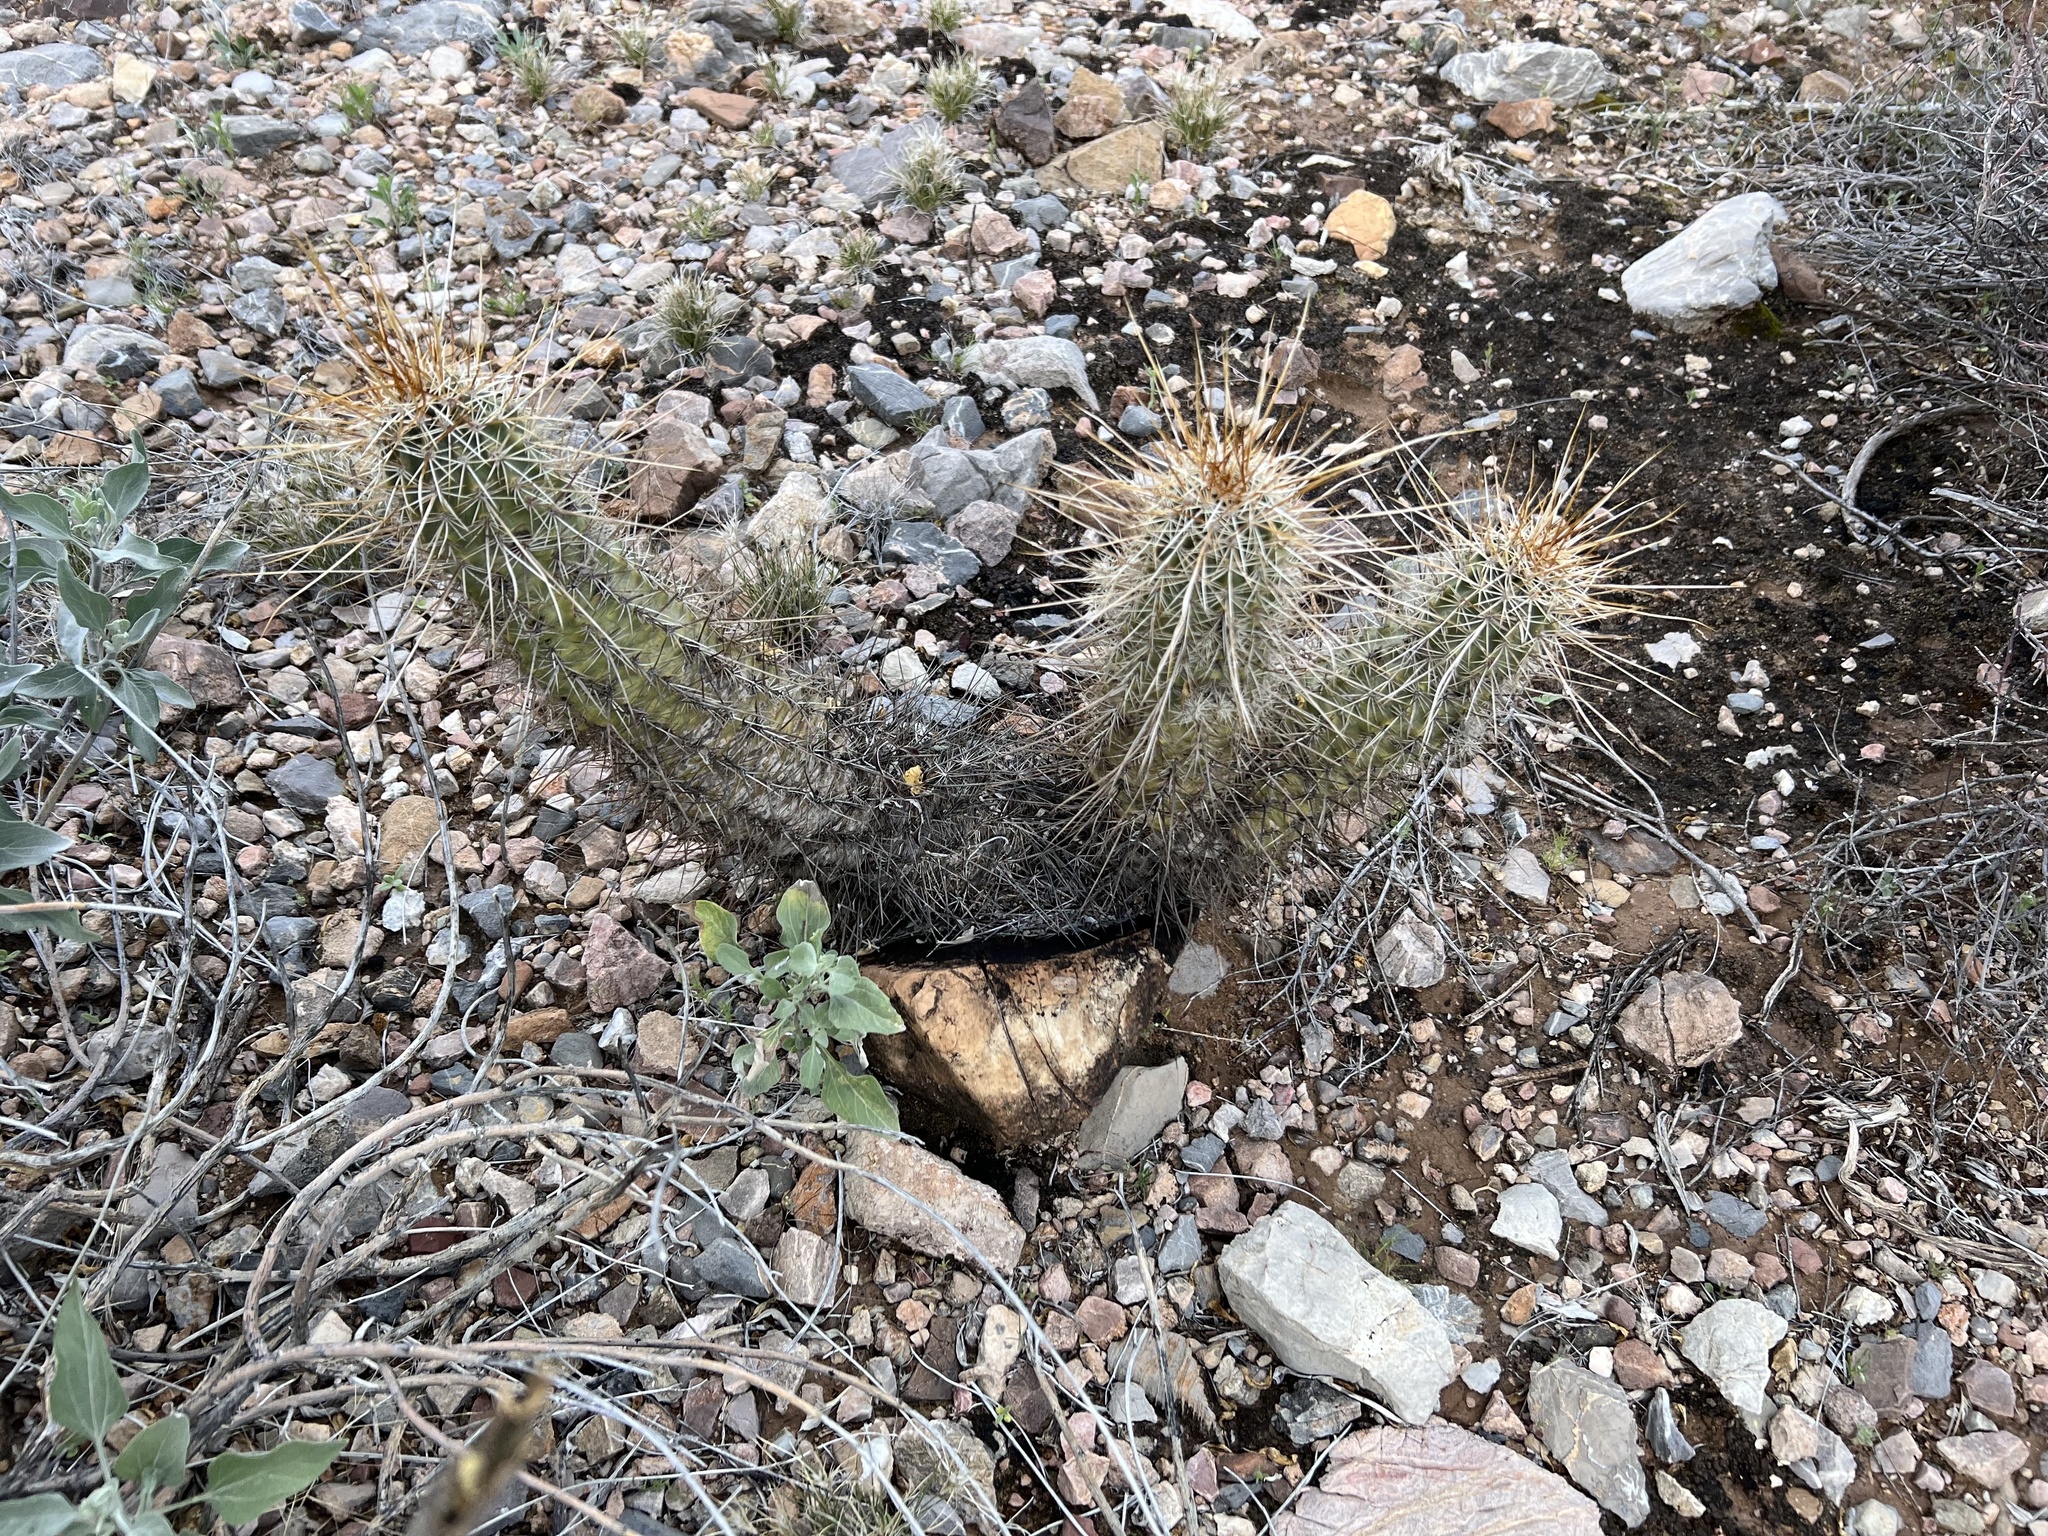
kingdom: Plantae
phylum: Tracheophyta
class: Magnoliopsida
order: Caryophyllales
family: Cactaceae
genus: Echinocereus
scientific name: Echinocereus fasciculatus
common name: Bundle hedgehog
